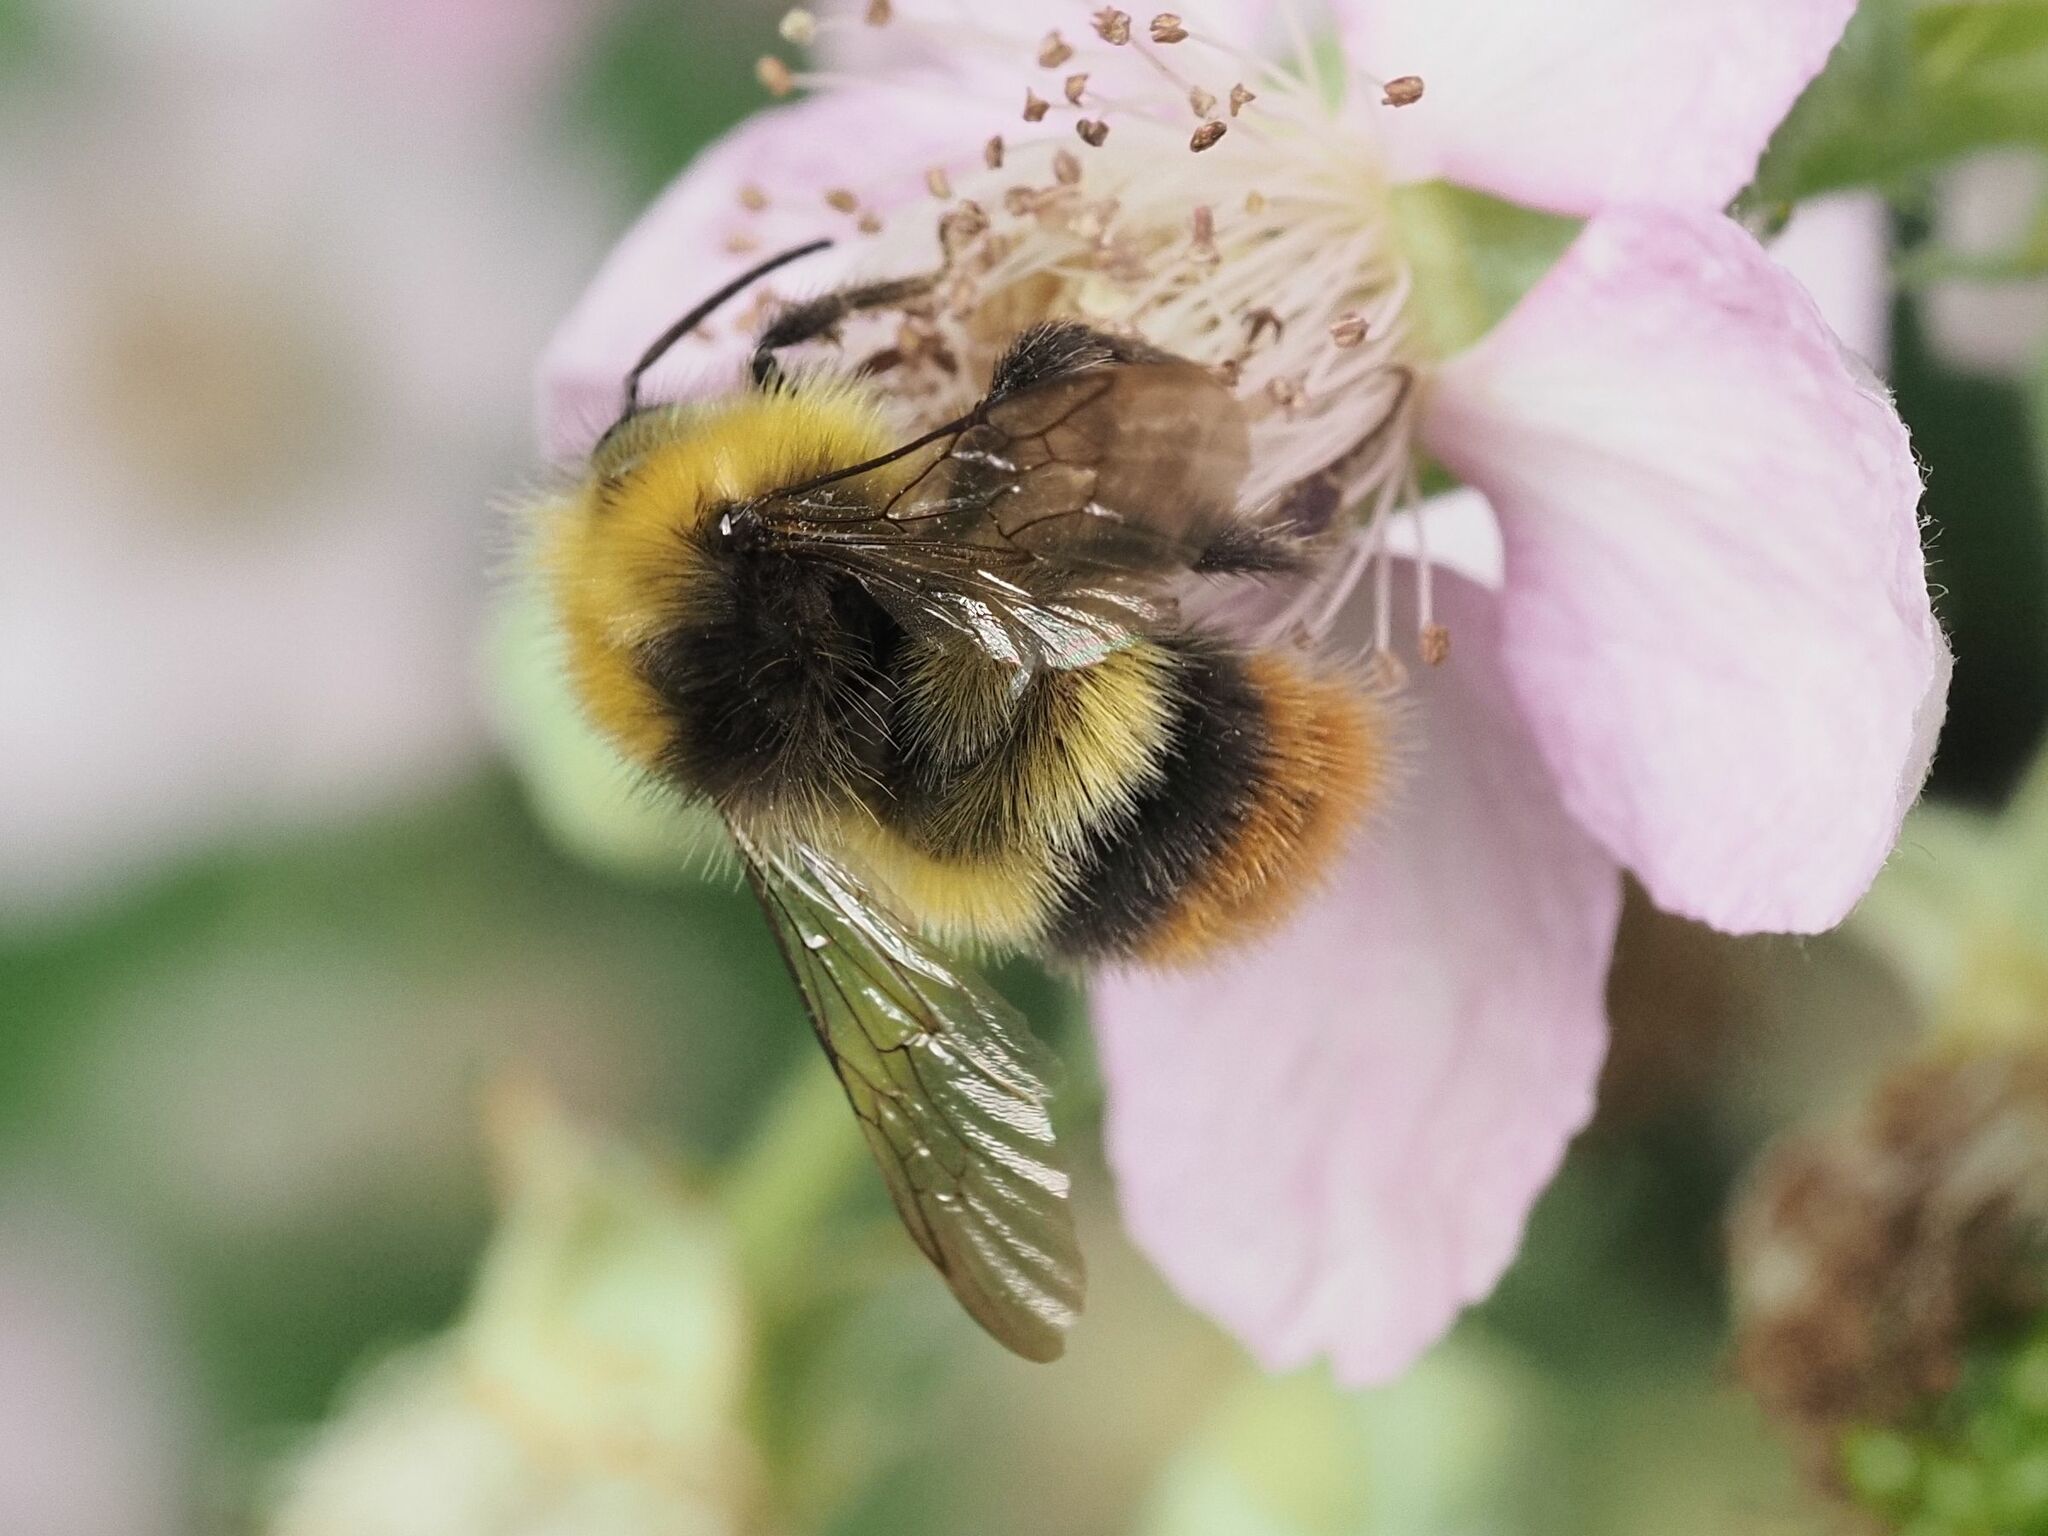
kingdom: Animalia
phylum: Arthropoda
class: Insecta
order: Hymenoptera
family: Apidae
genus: Bombus
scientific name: Bombus pratorum
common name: Early humble-bee
